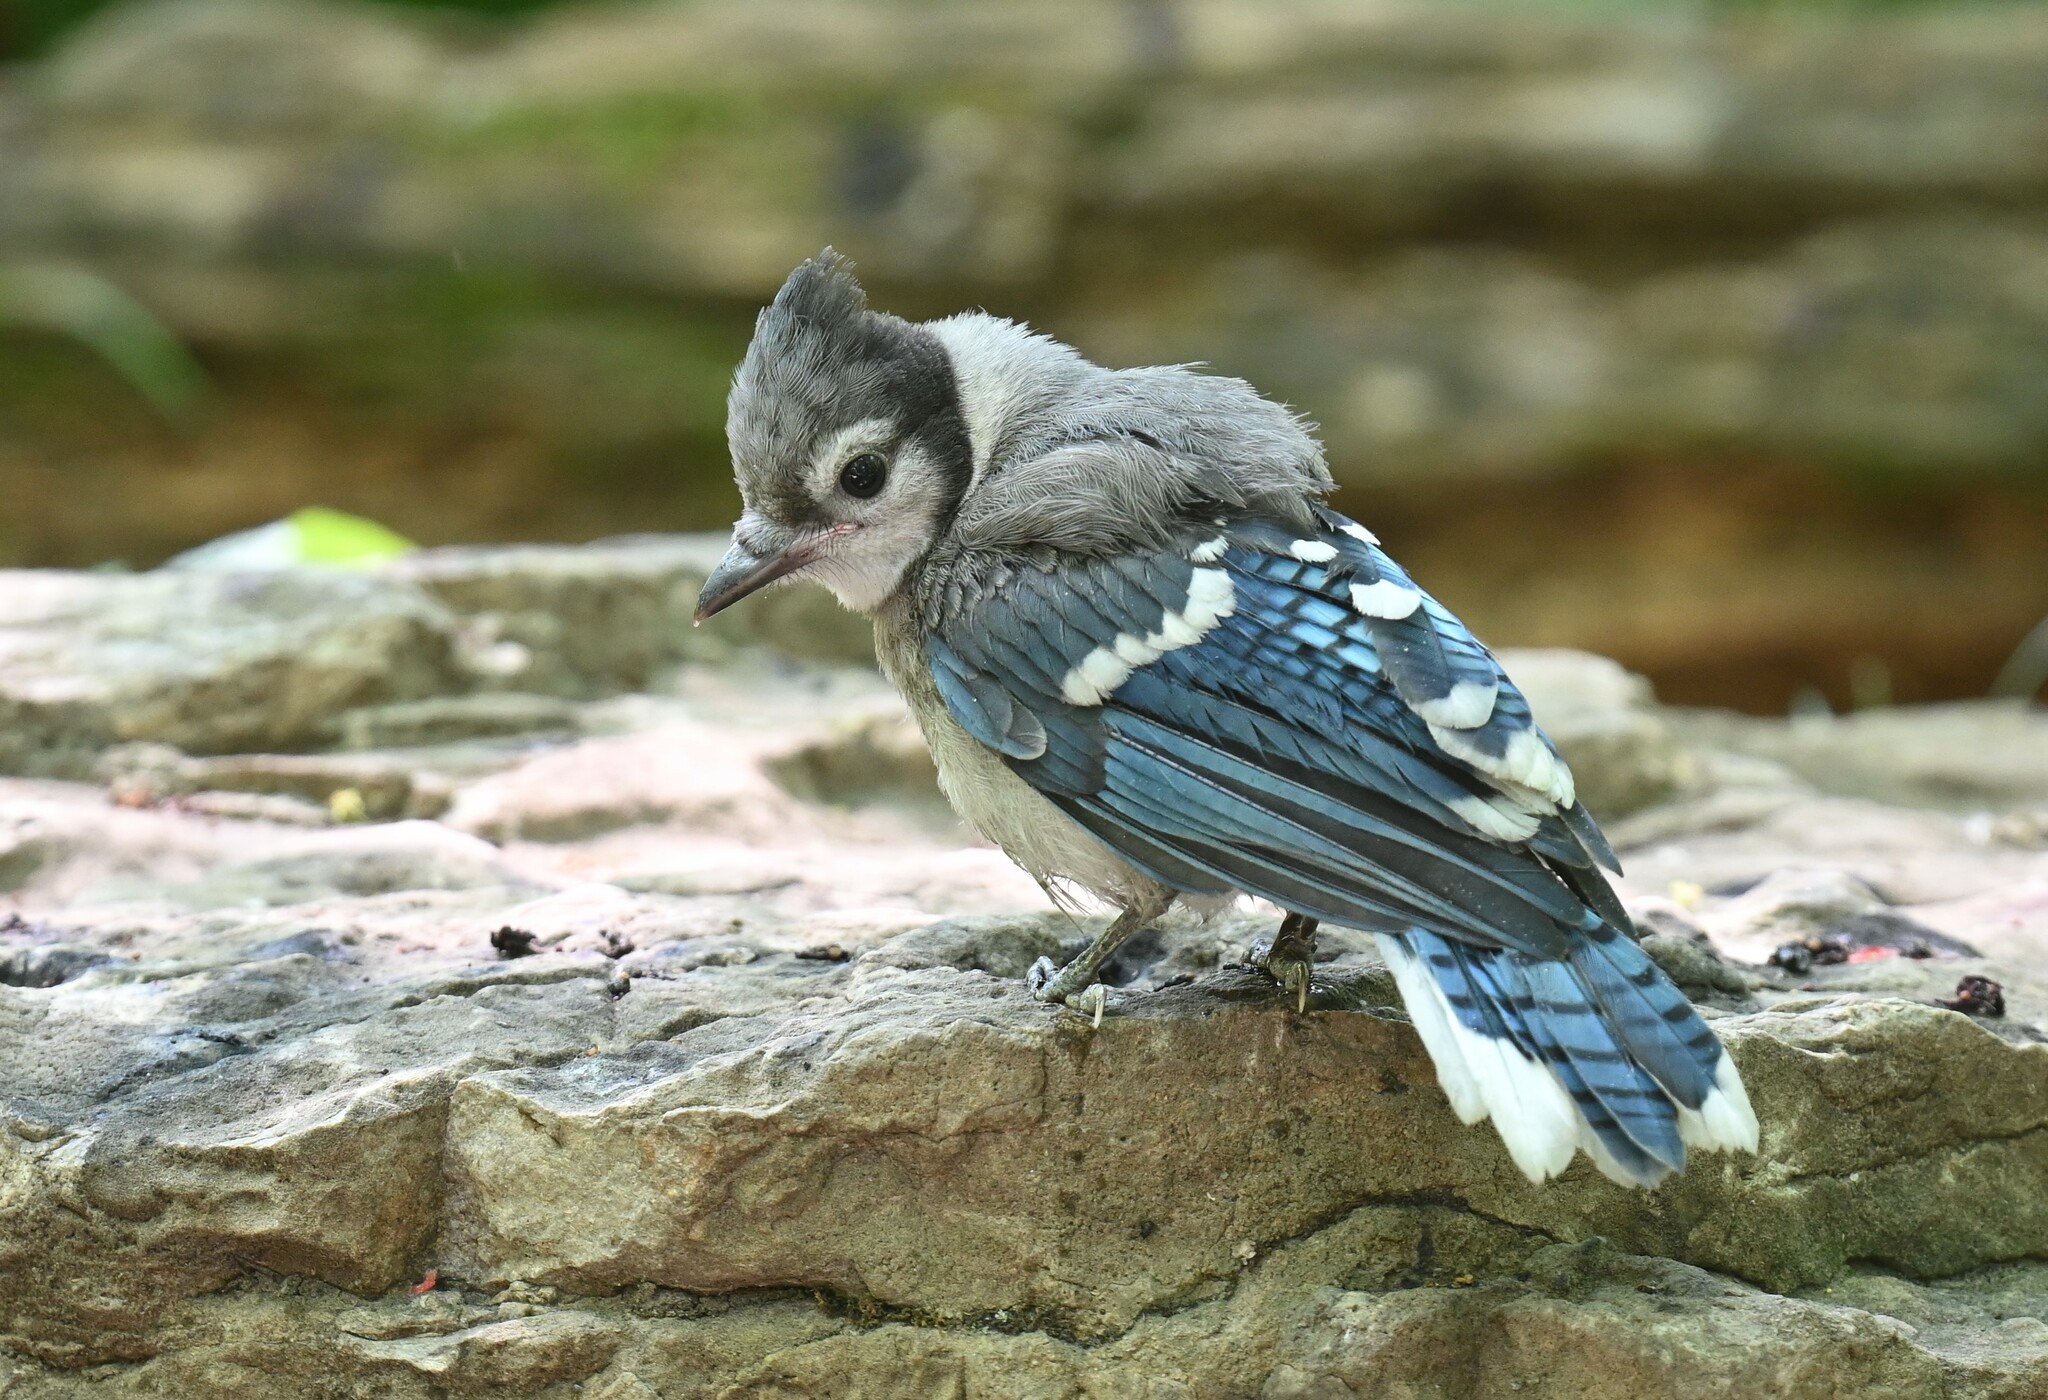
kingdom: Animalia
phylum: Chordata
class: Aves
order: Passeriformes
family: Corvidae
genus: Cyanocitta
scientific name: Cyanocitta cristata
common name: Blue jay
